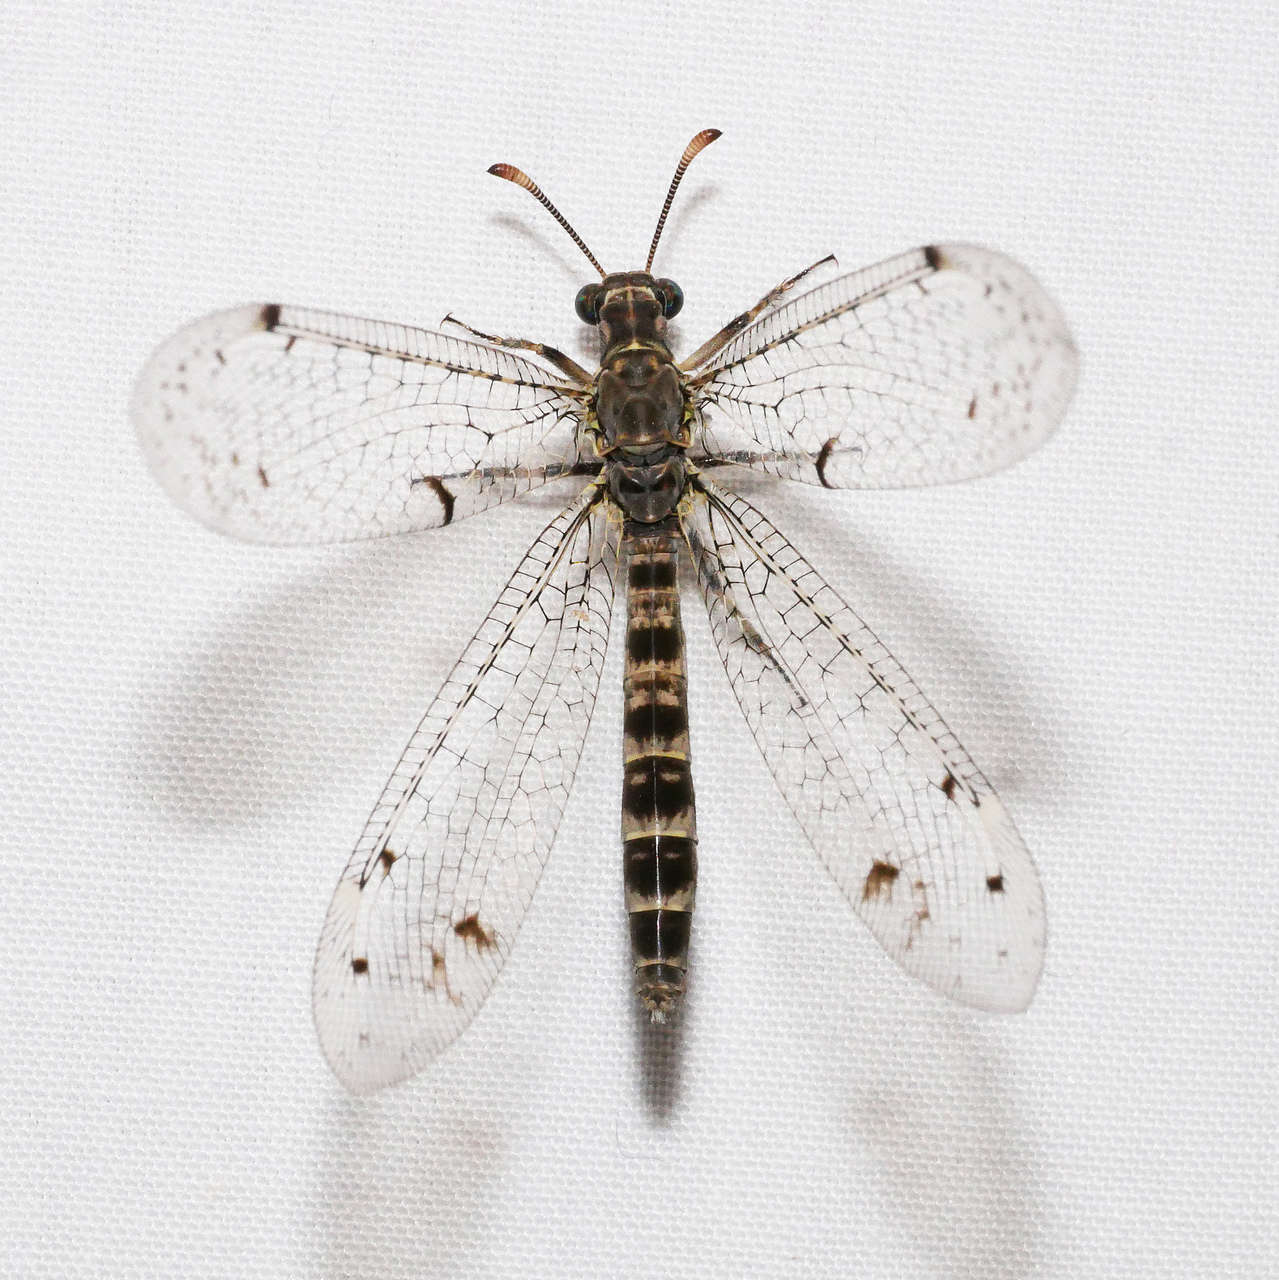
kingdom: Animalia
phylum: Arthropoda
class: Insecta
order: Neuroptera
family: Myrmeleontidae
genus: Bandidus
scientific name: Bandidus breviusculus
